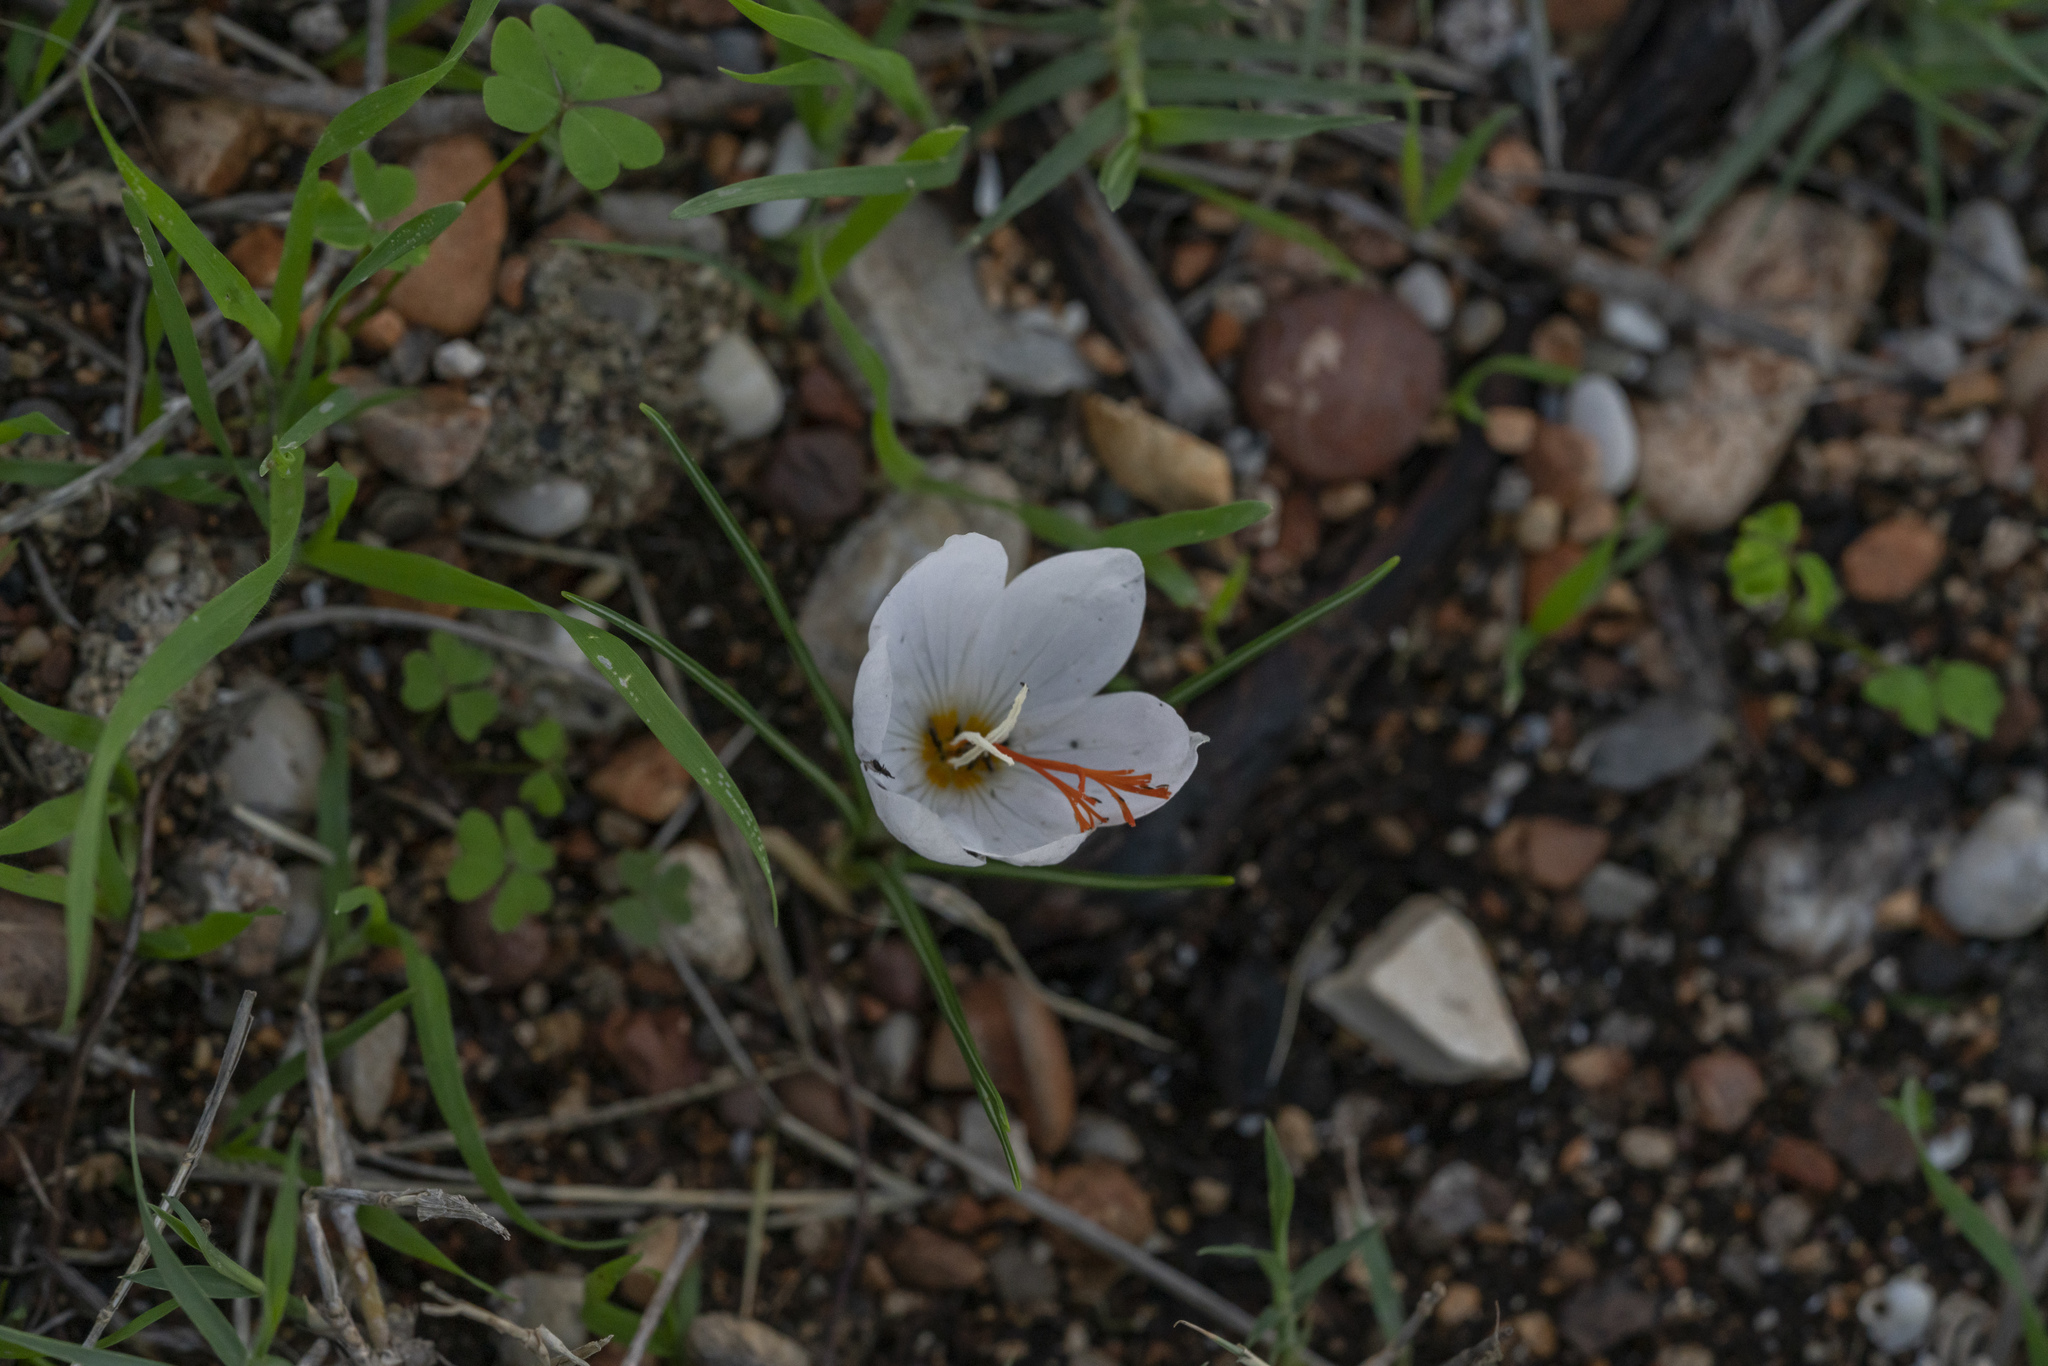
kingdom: Plantae
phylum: Tracheophyta
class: Liliopsida
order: Asparagales
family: Iridaceae
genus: Crocus
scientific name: Crocus tournefortii
